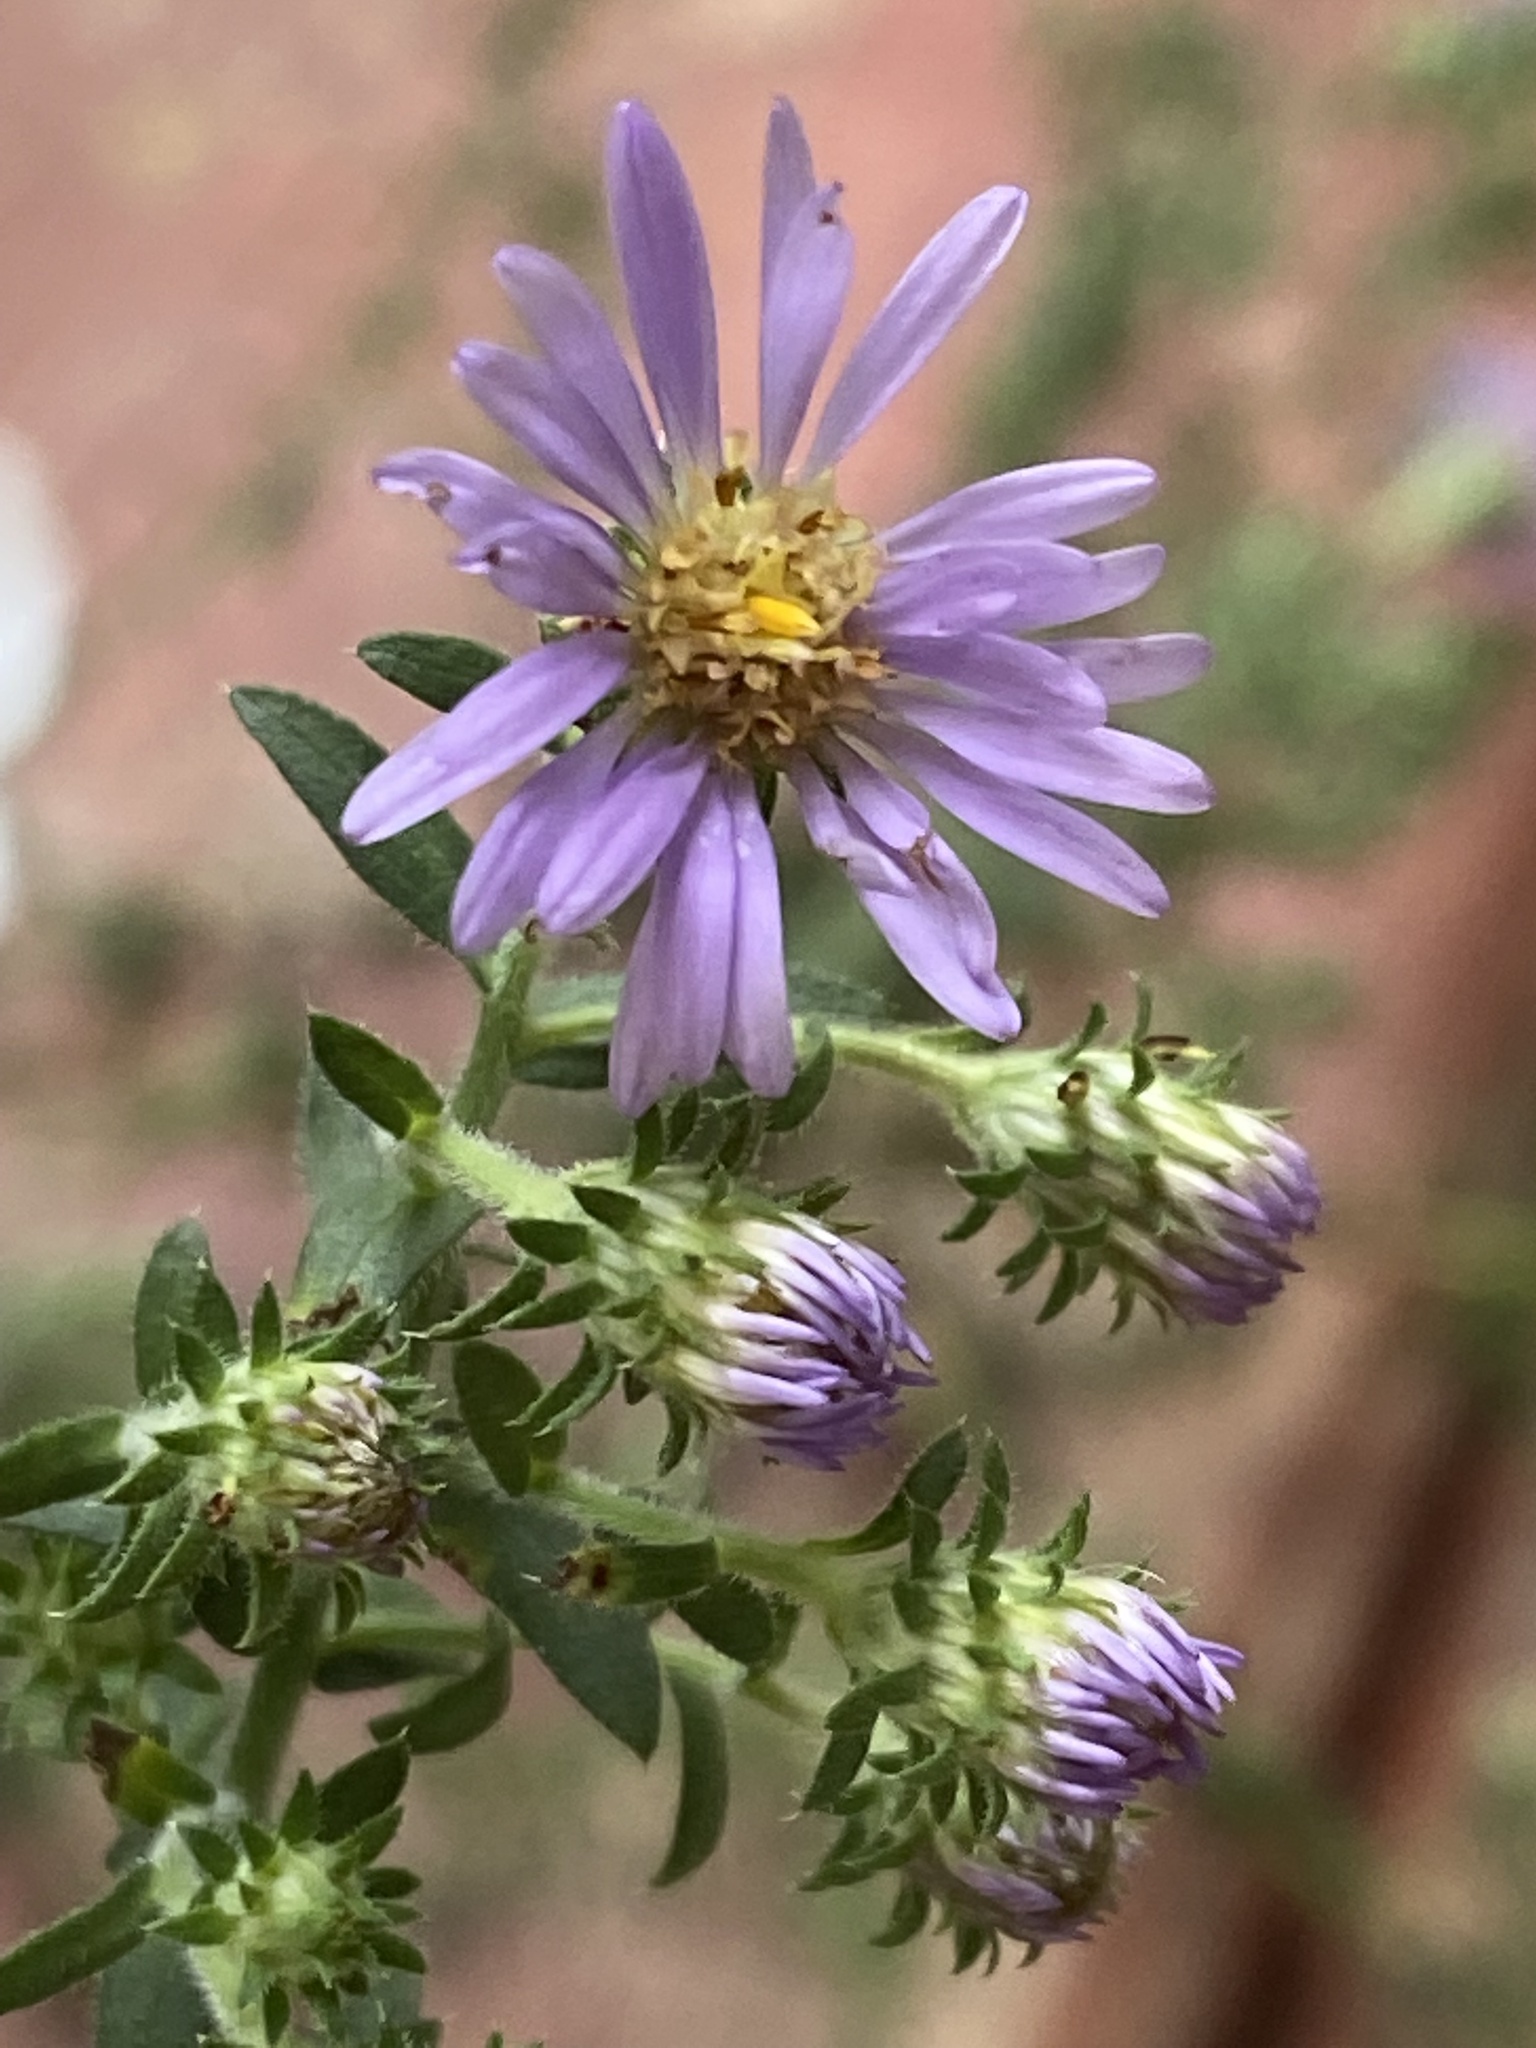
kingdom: Plantae
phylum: Tracheophyta
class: Magnoliopsida
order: Asterales
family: Asteraceae
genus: Symphyotrichum
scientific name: Symphyotrichum praealtum
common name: Willow aster
